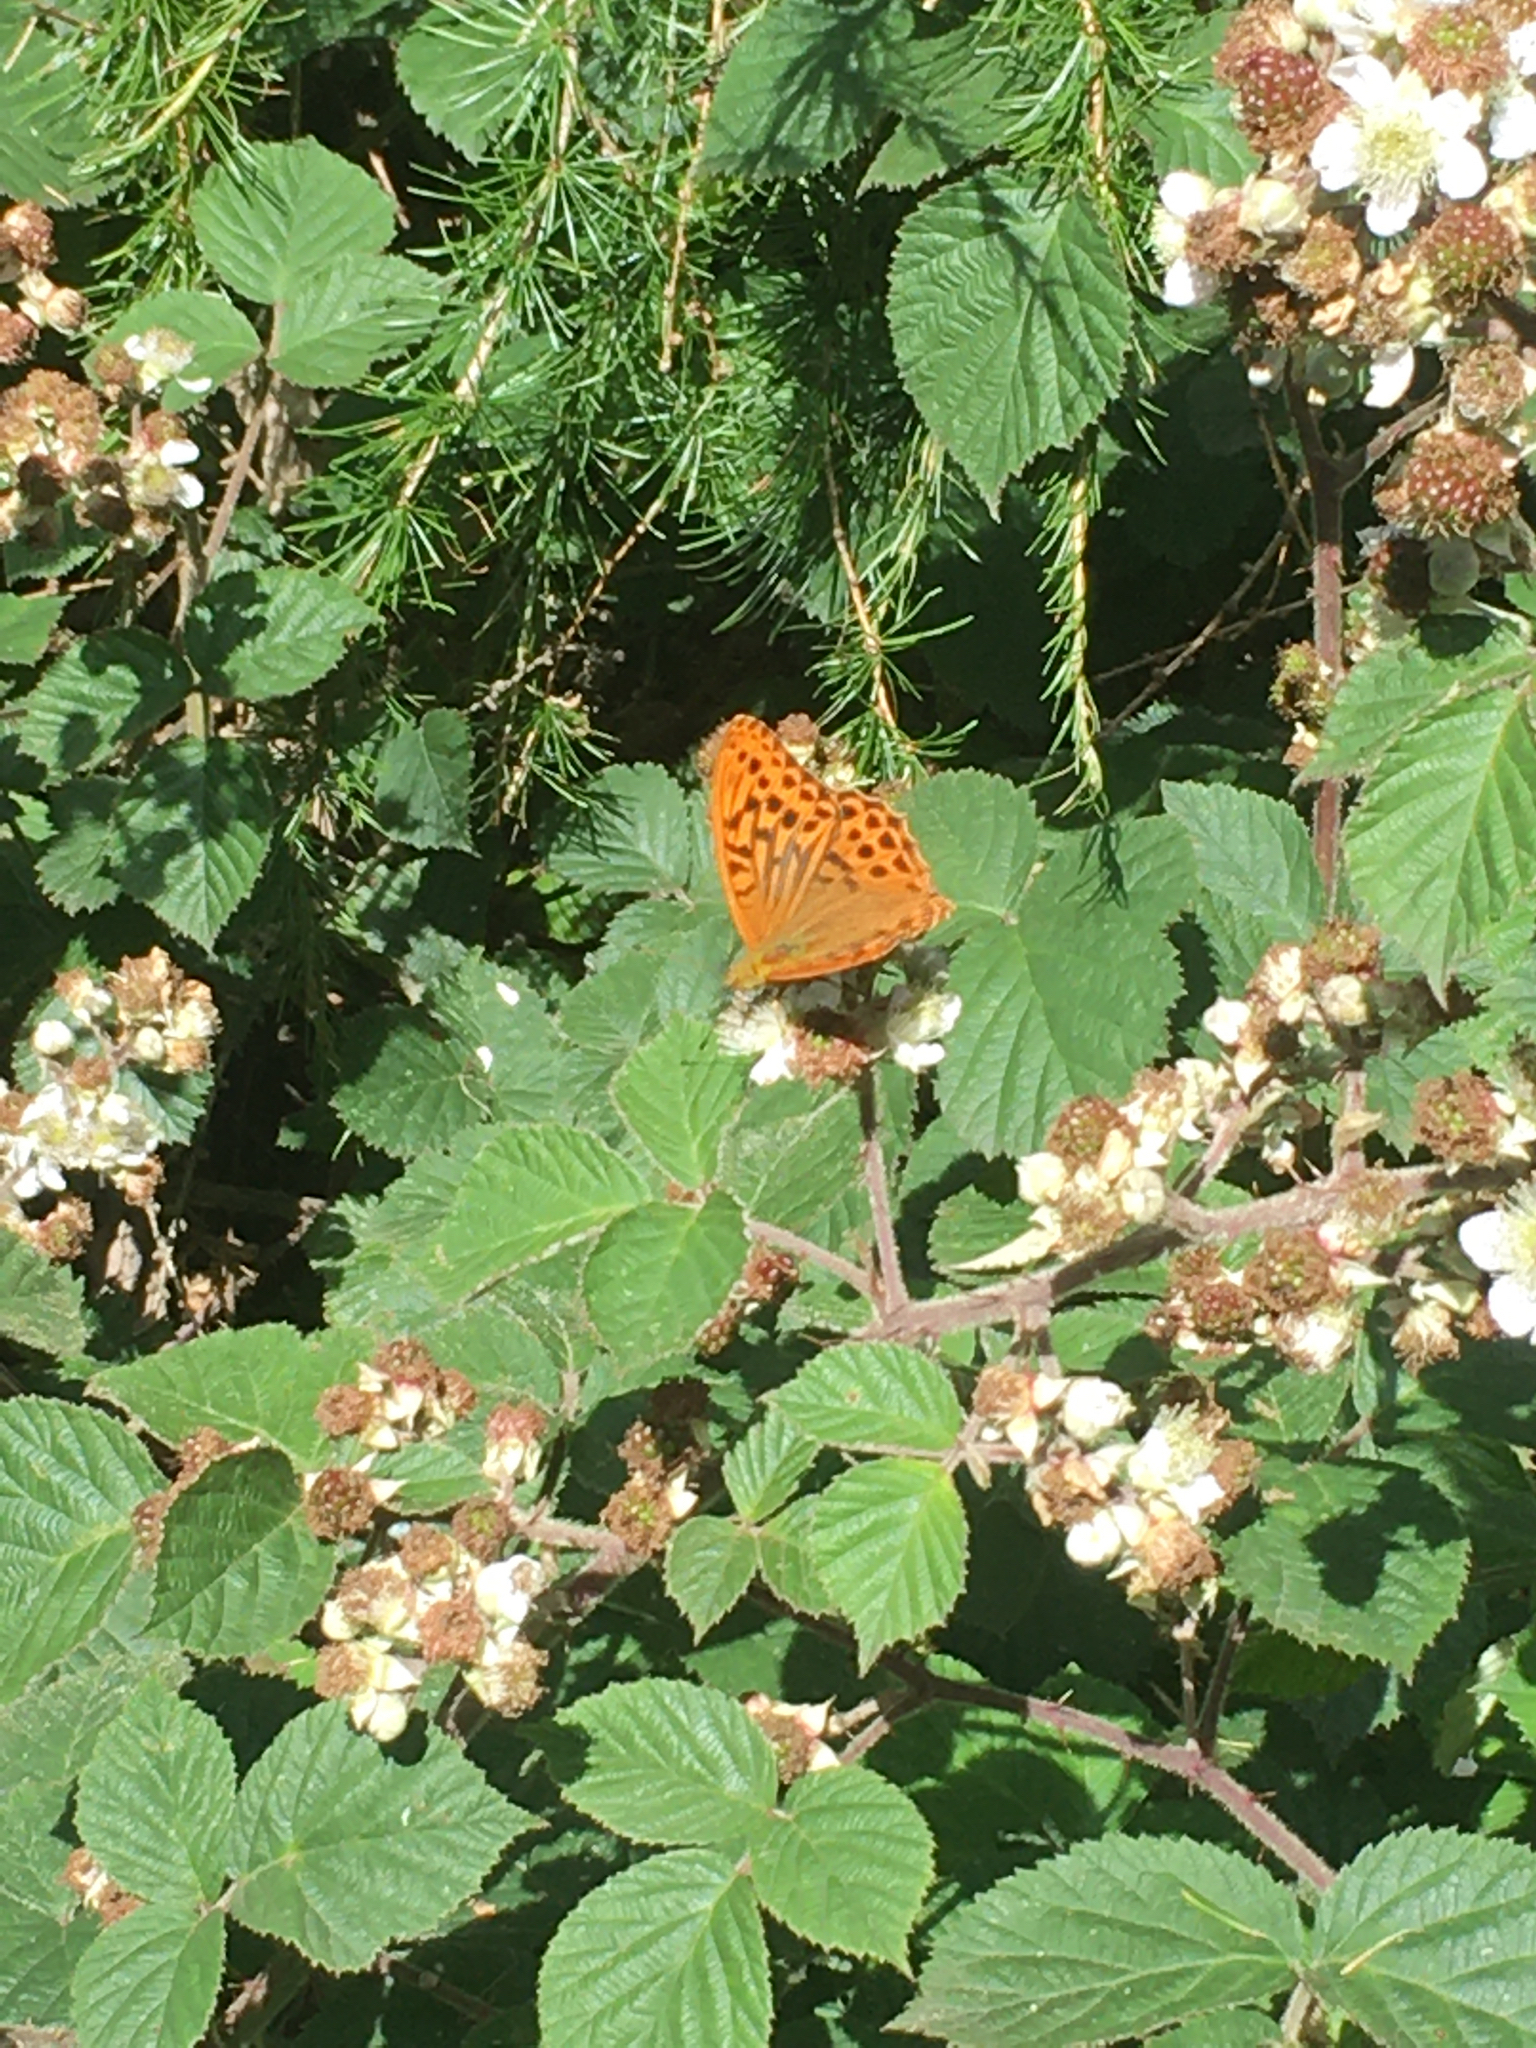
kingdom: Animalia
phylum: Arthropoda
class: Insecta
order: Lepidoptera
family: Nymphalidae
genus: Argynnis
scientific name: Argynnis paphia
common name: Silver-washed fritillary
